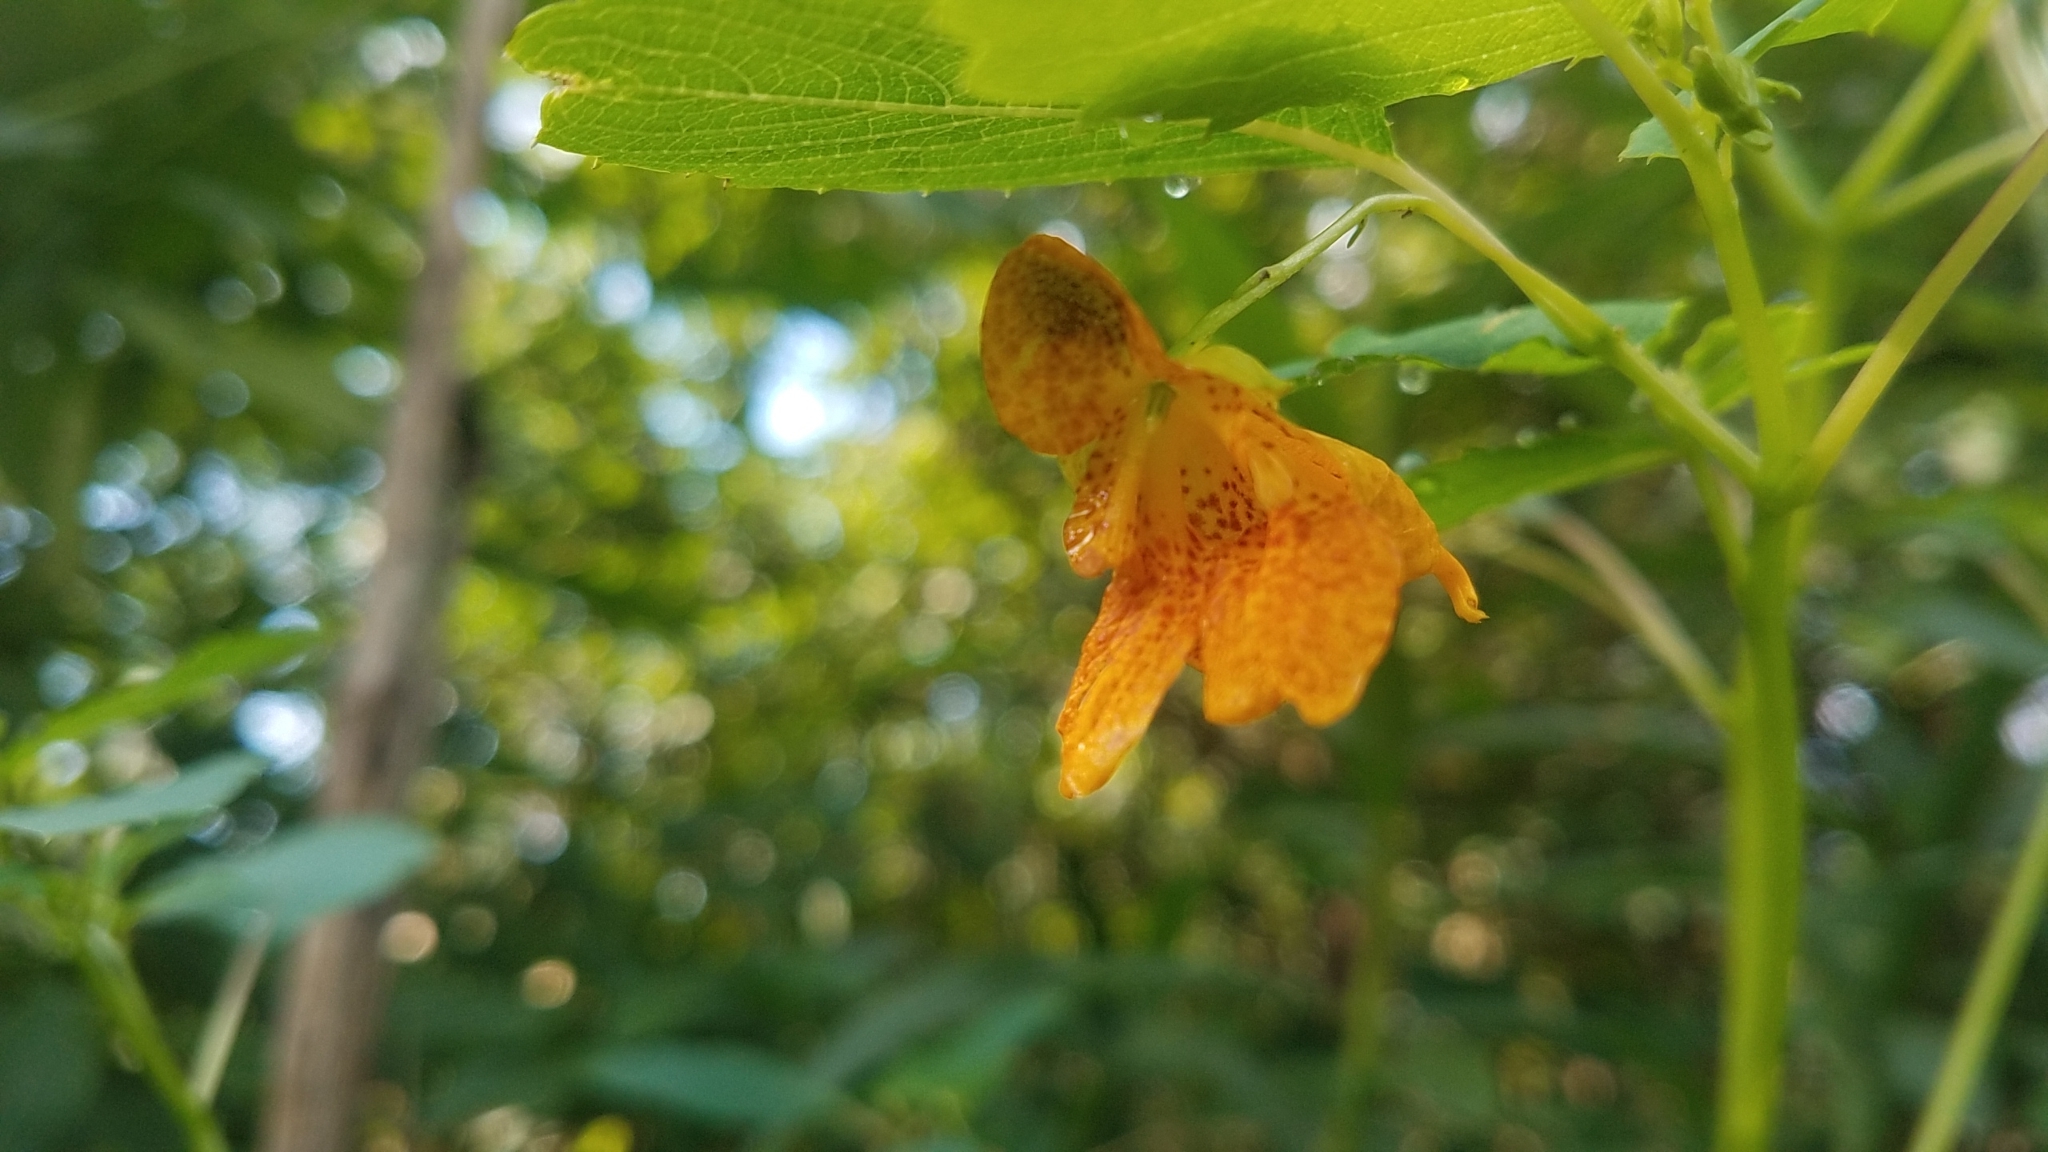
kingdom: Plantae
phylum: Tracheophyta
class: Magnoliopsida
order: Ericales
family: Balsaminaceae
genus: Impatiens
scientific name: Impatiens capensis
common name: Orange balsam
